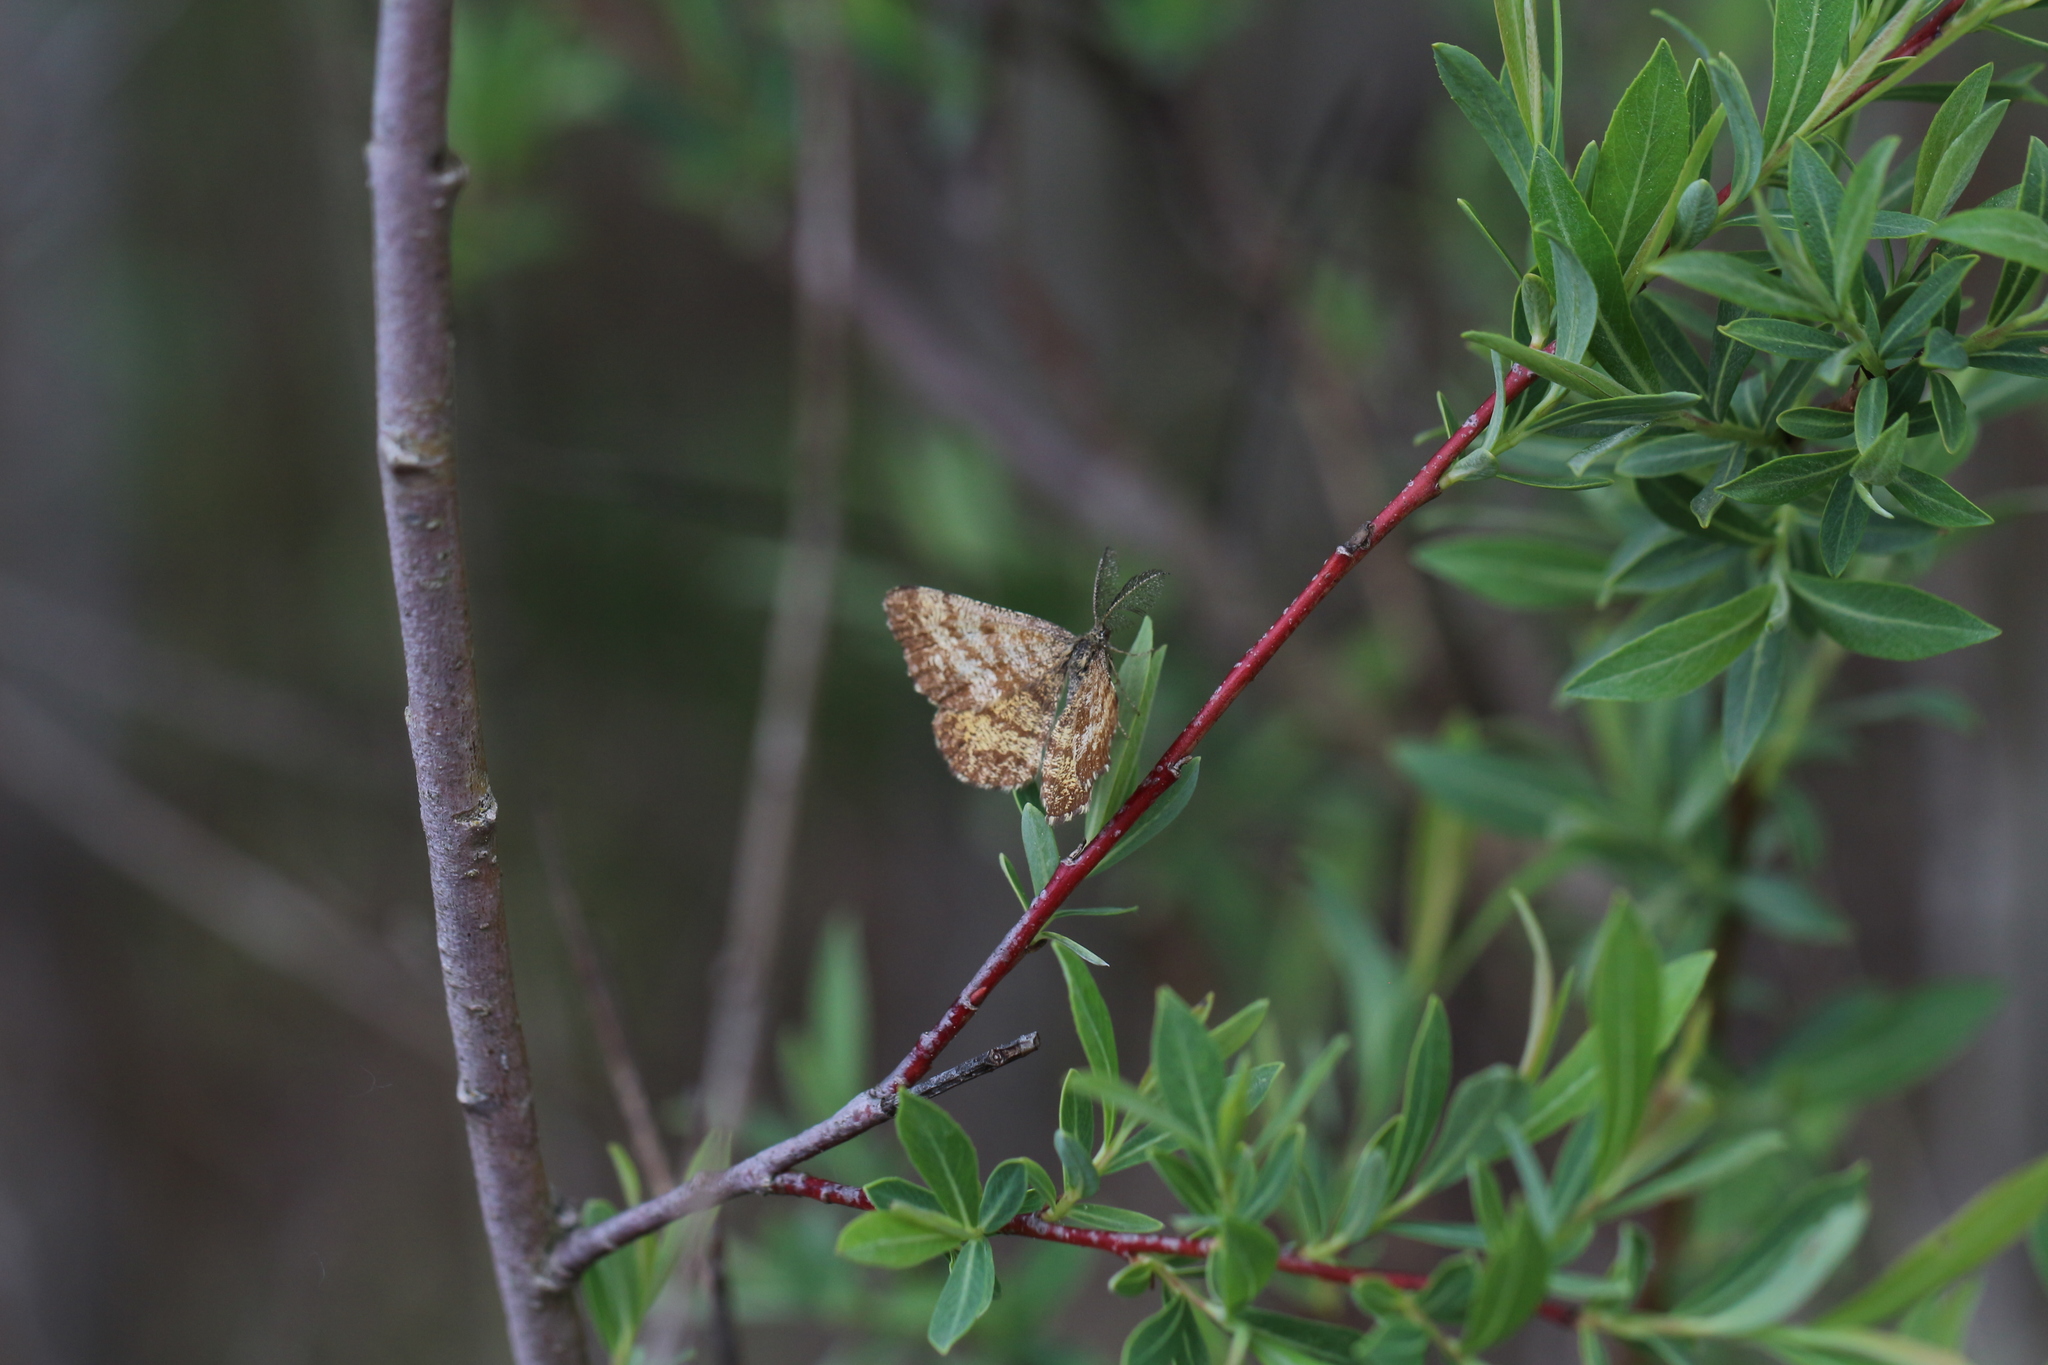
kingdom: Animalia
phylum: Arthropoda
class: Insecta
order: Lepidoptera
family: Geometridae
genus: Ematurga
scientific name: Ematurga atomaria
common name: Common heath
